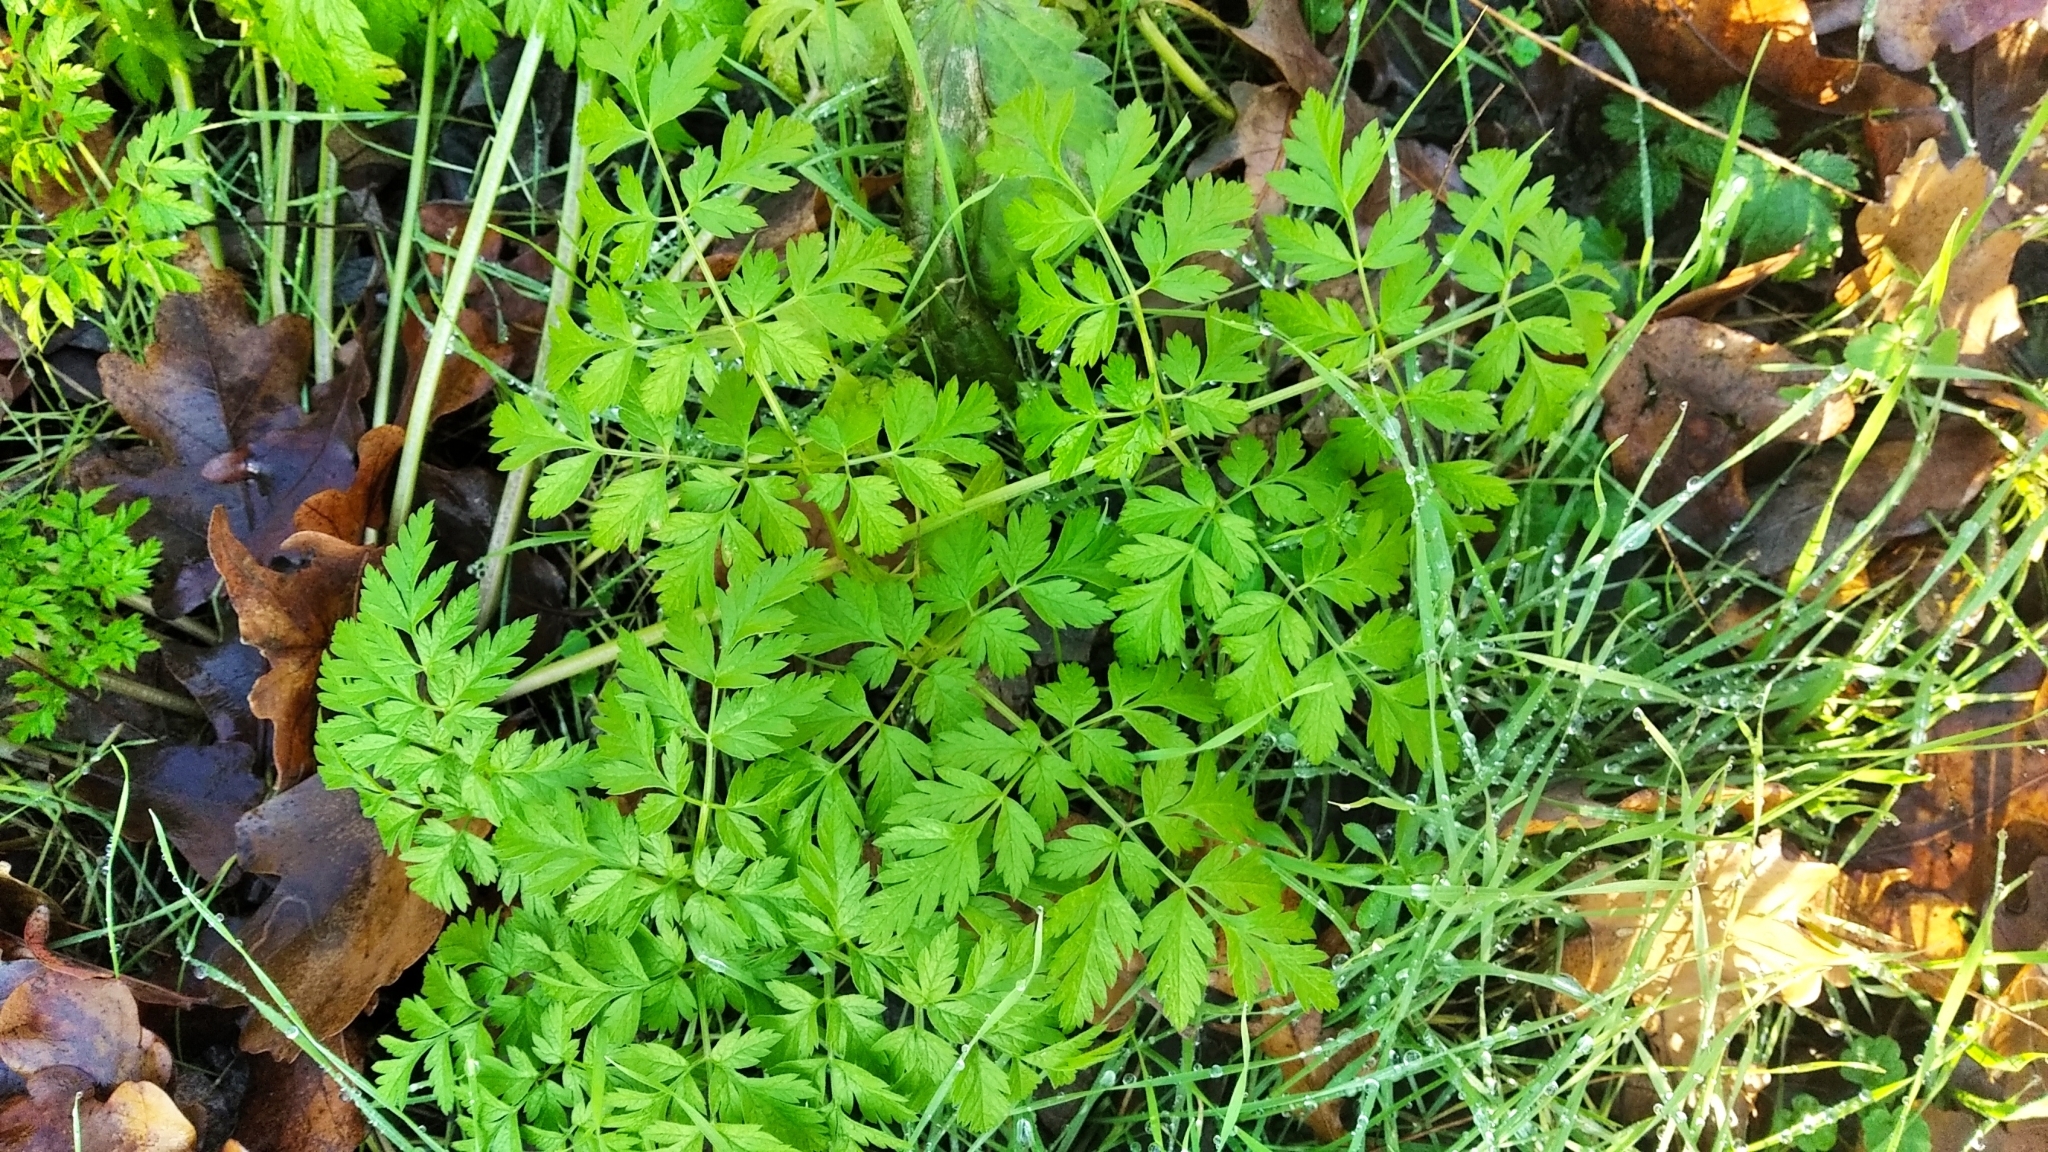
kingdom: Plantae
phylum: Tracheophyta
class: Magnoliopsida
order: Apiales
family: Apiaceae
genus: Anthriscus
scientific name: Anthriscus sylvestris
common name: Cow parsley
